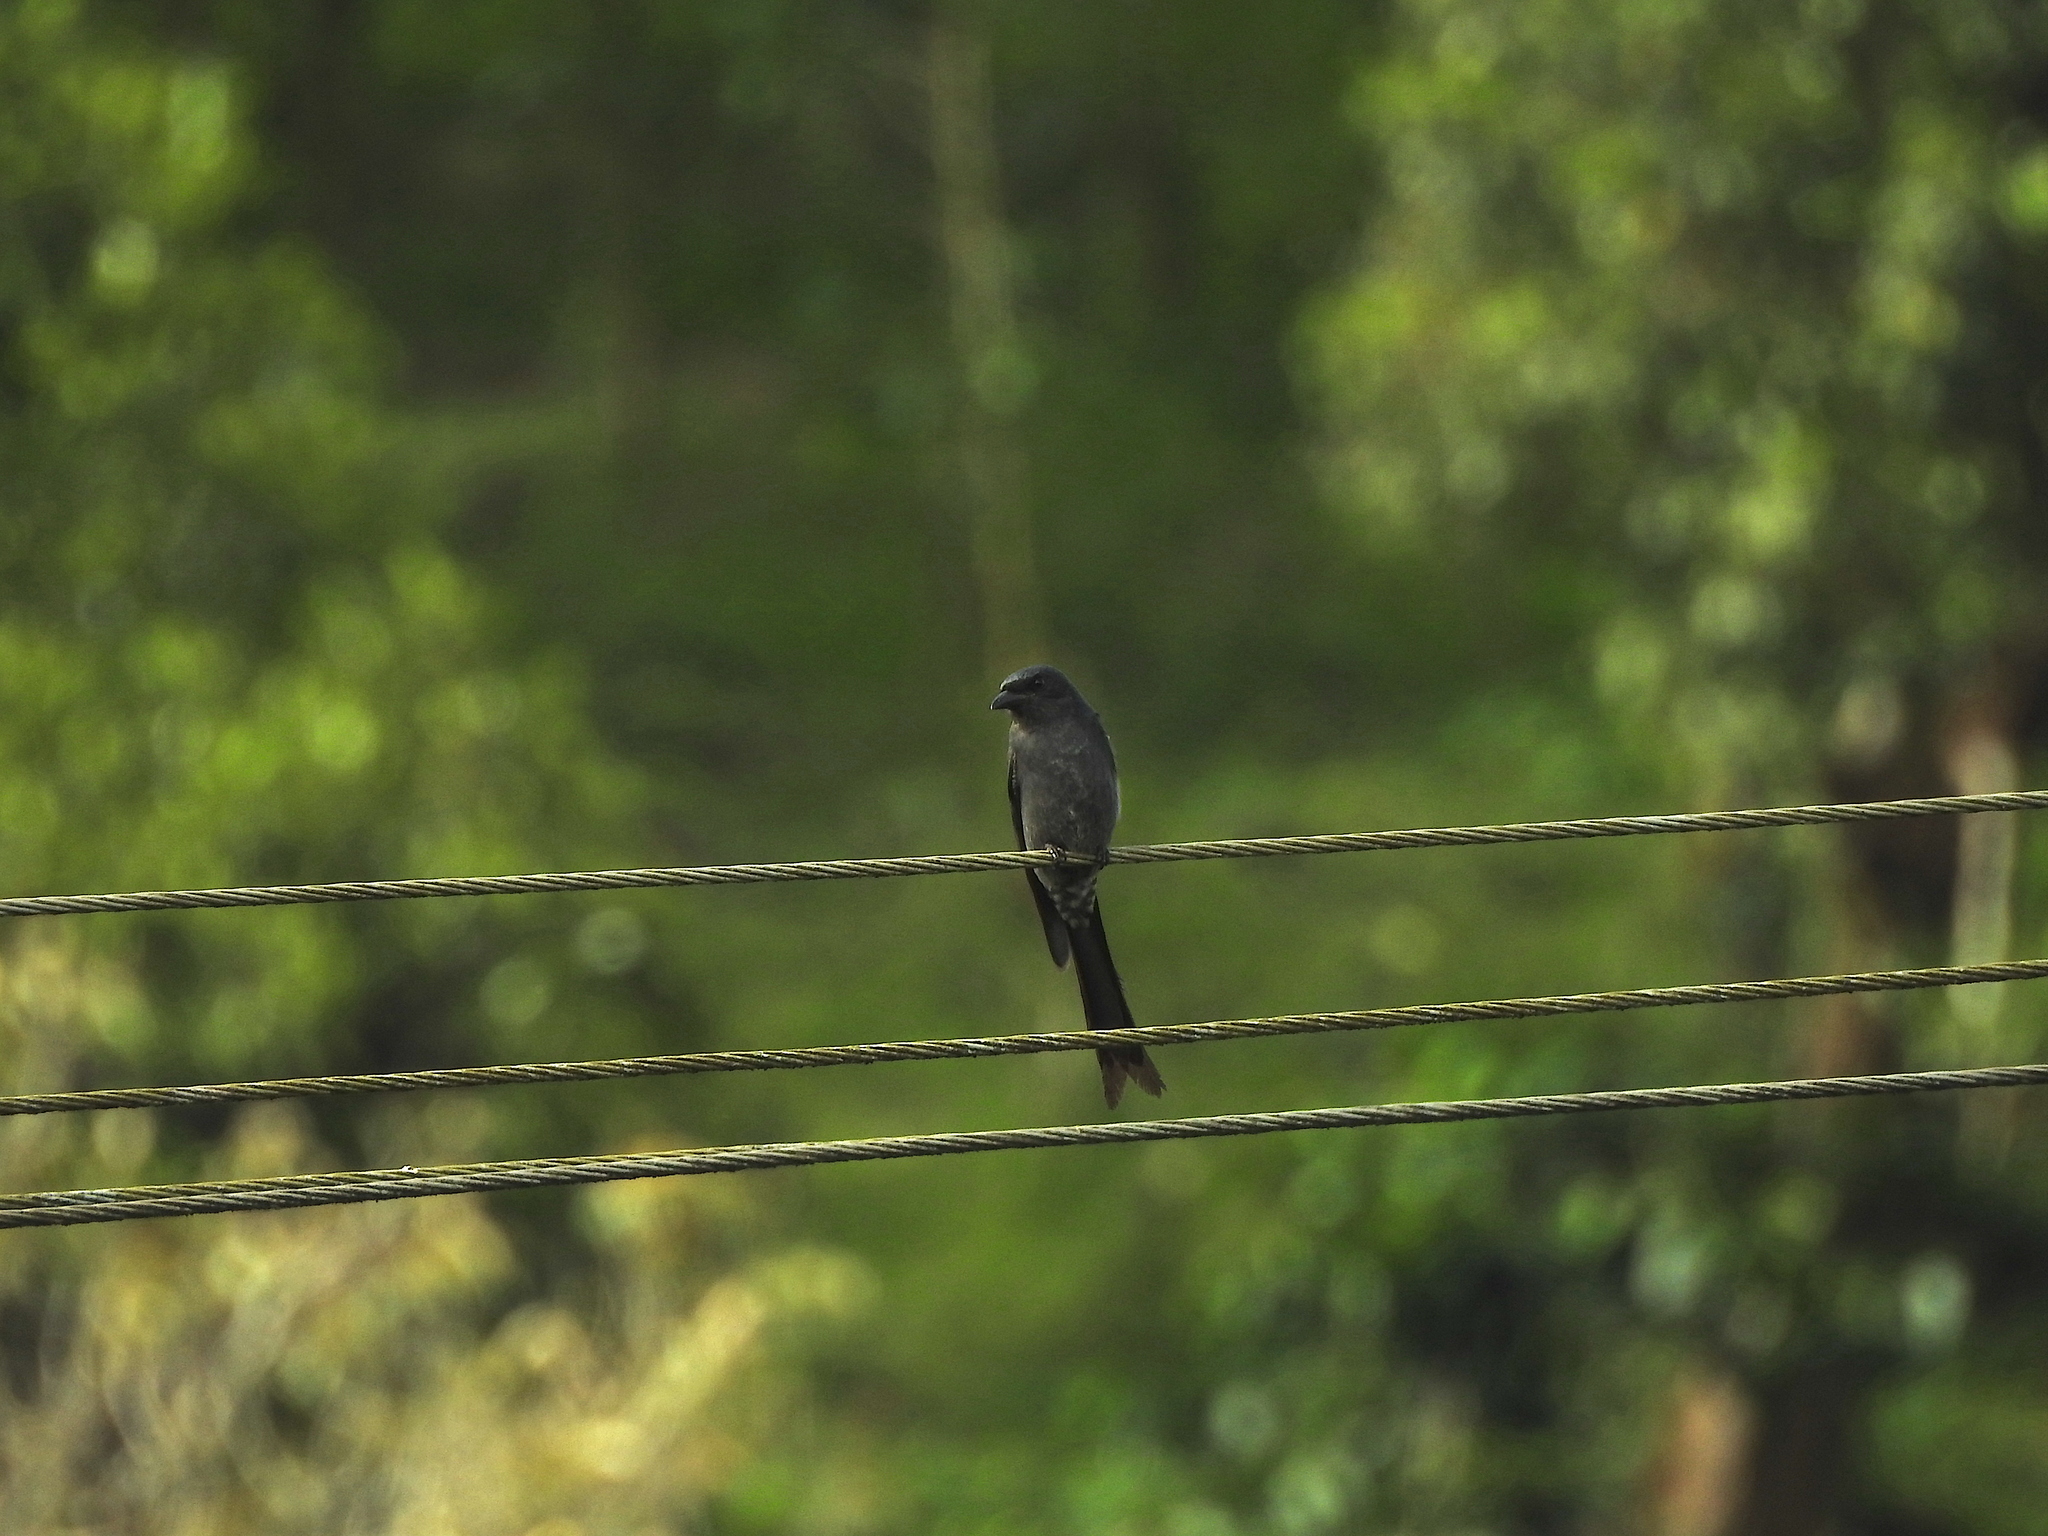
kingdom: Animalia
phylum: Chordata
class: Aves
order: Passeriformes
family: Dicruridae
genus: Dicrurus
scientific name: Dicrurus leucophaeus
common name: Ashy drongo
